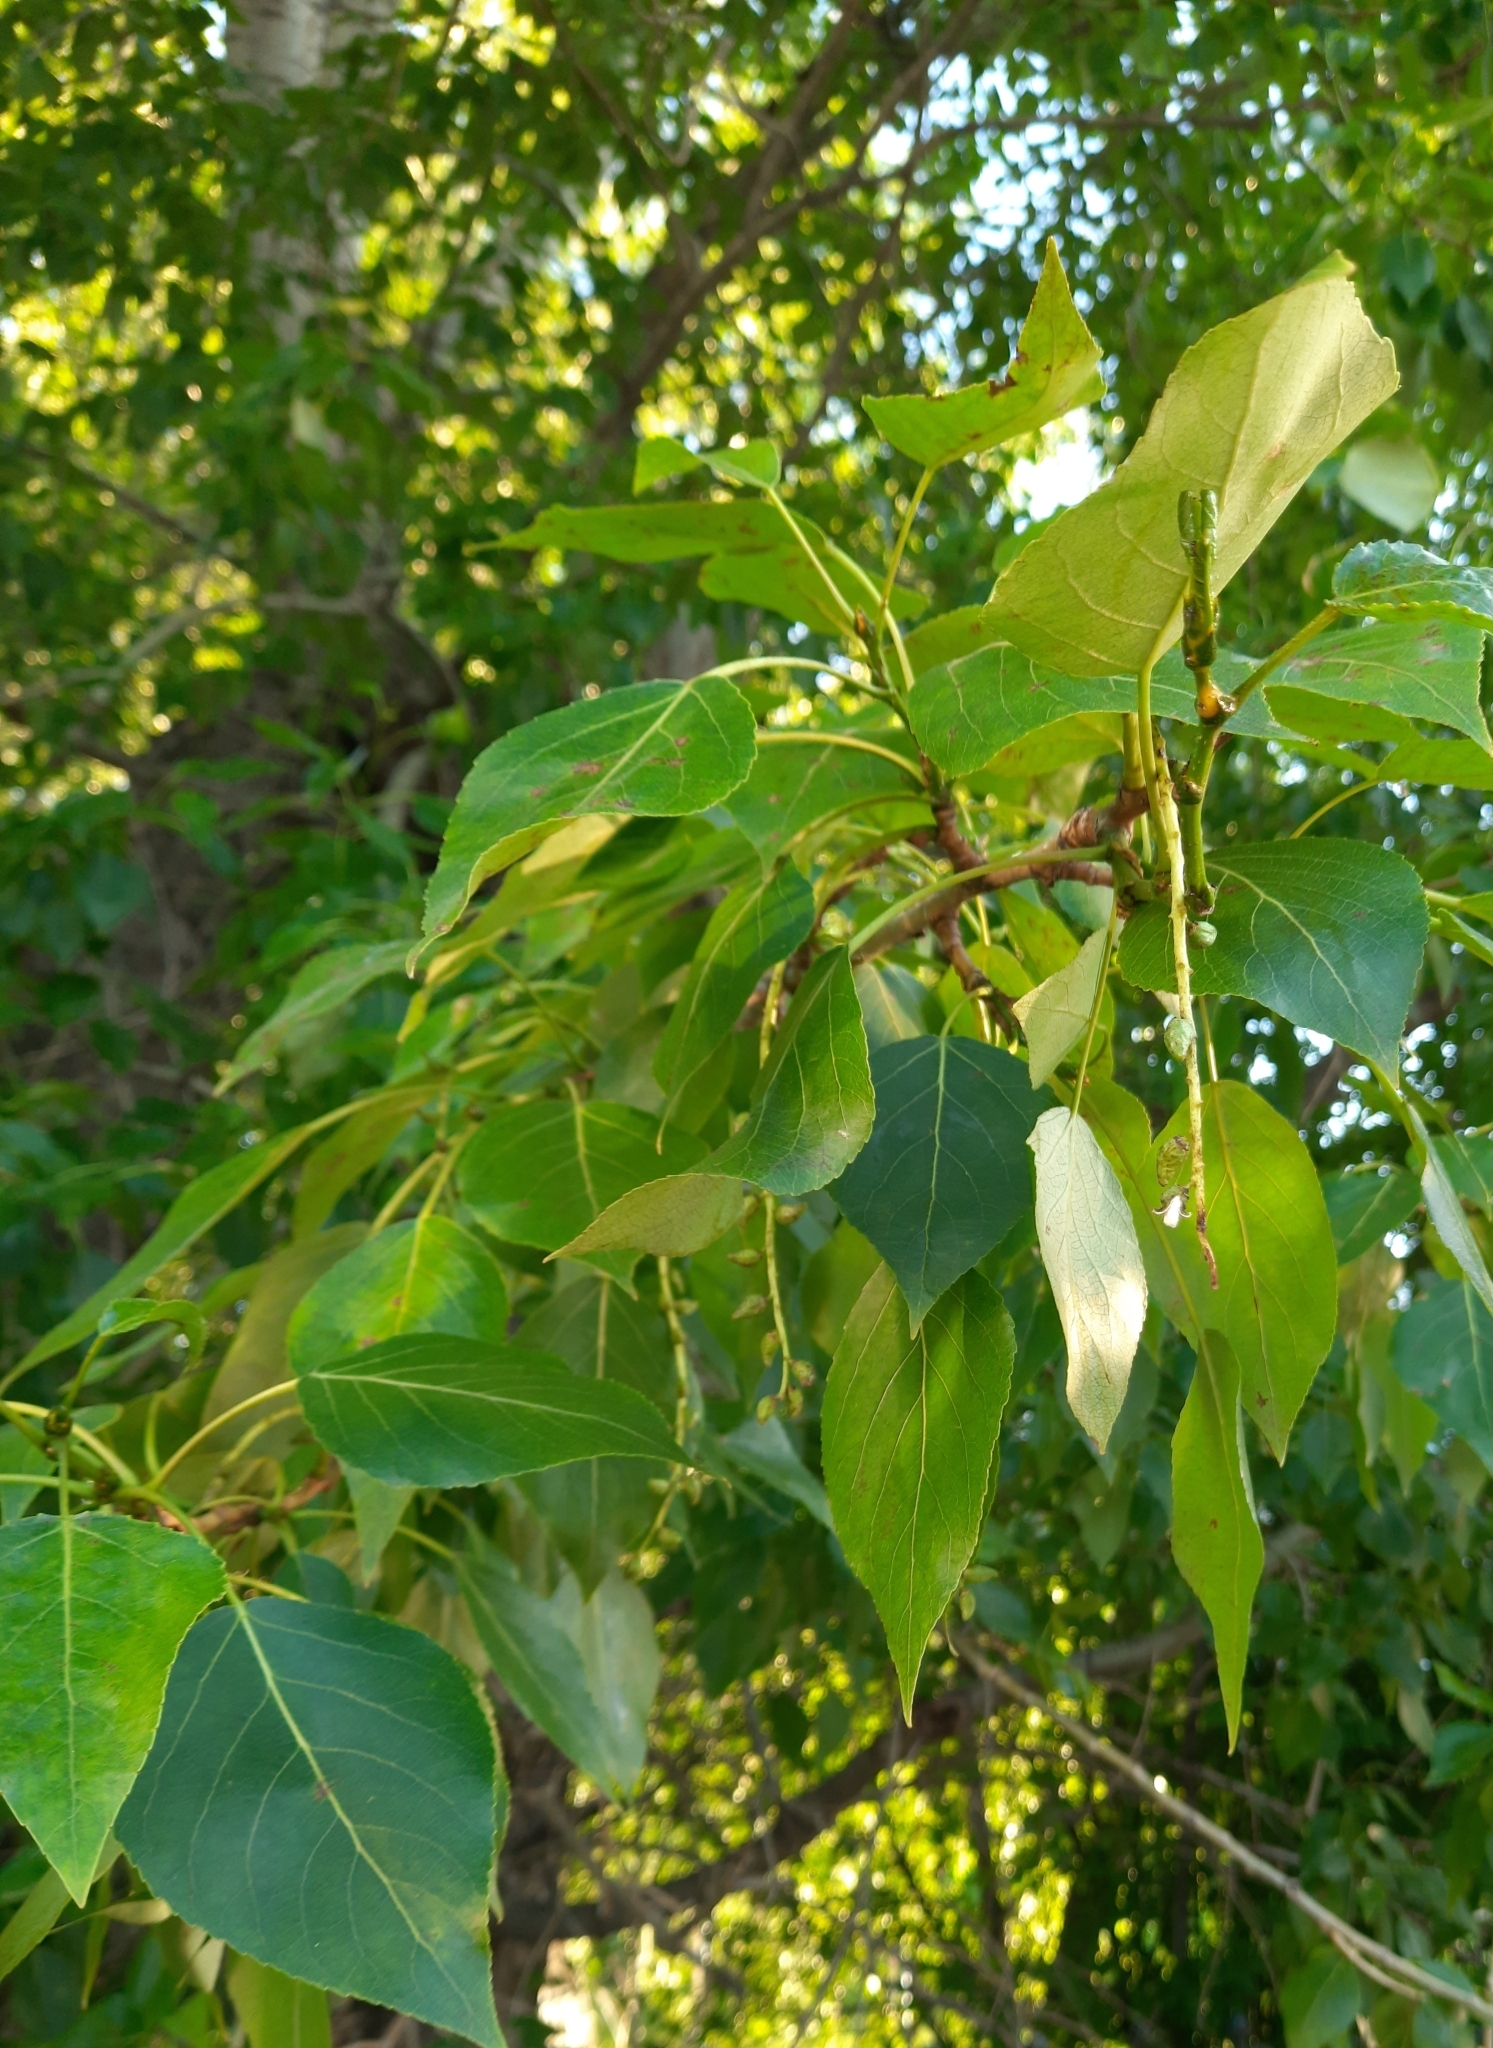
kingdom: Plantae
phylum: Tracheophyta
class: Magnoliopsida
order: Malpighiales
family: Salicaceae
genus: Populus
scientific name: Populus sibirica
